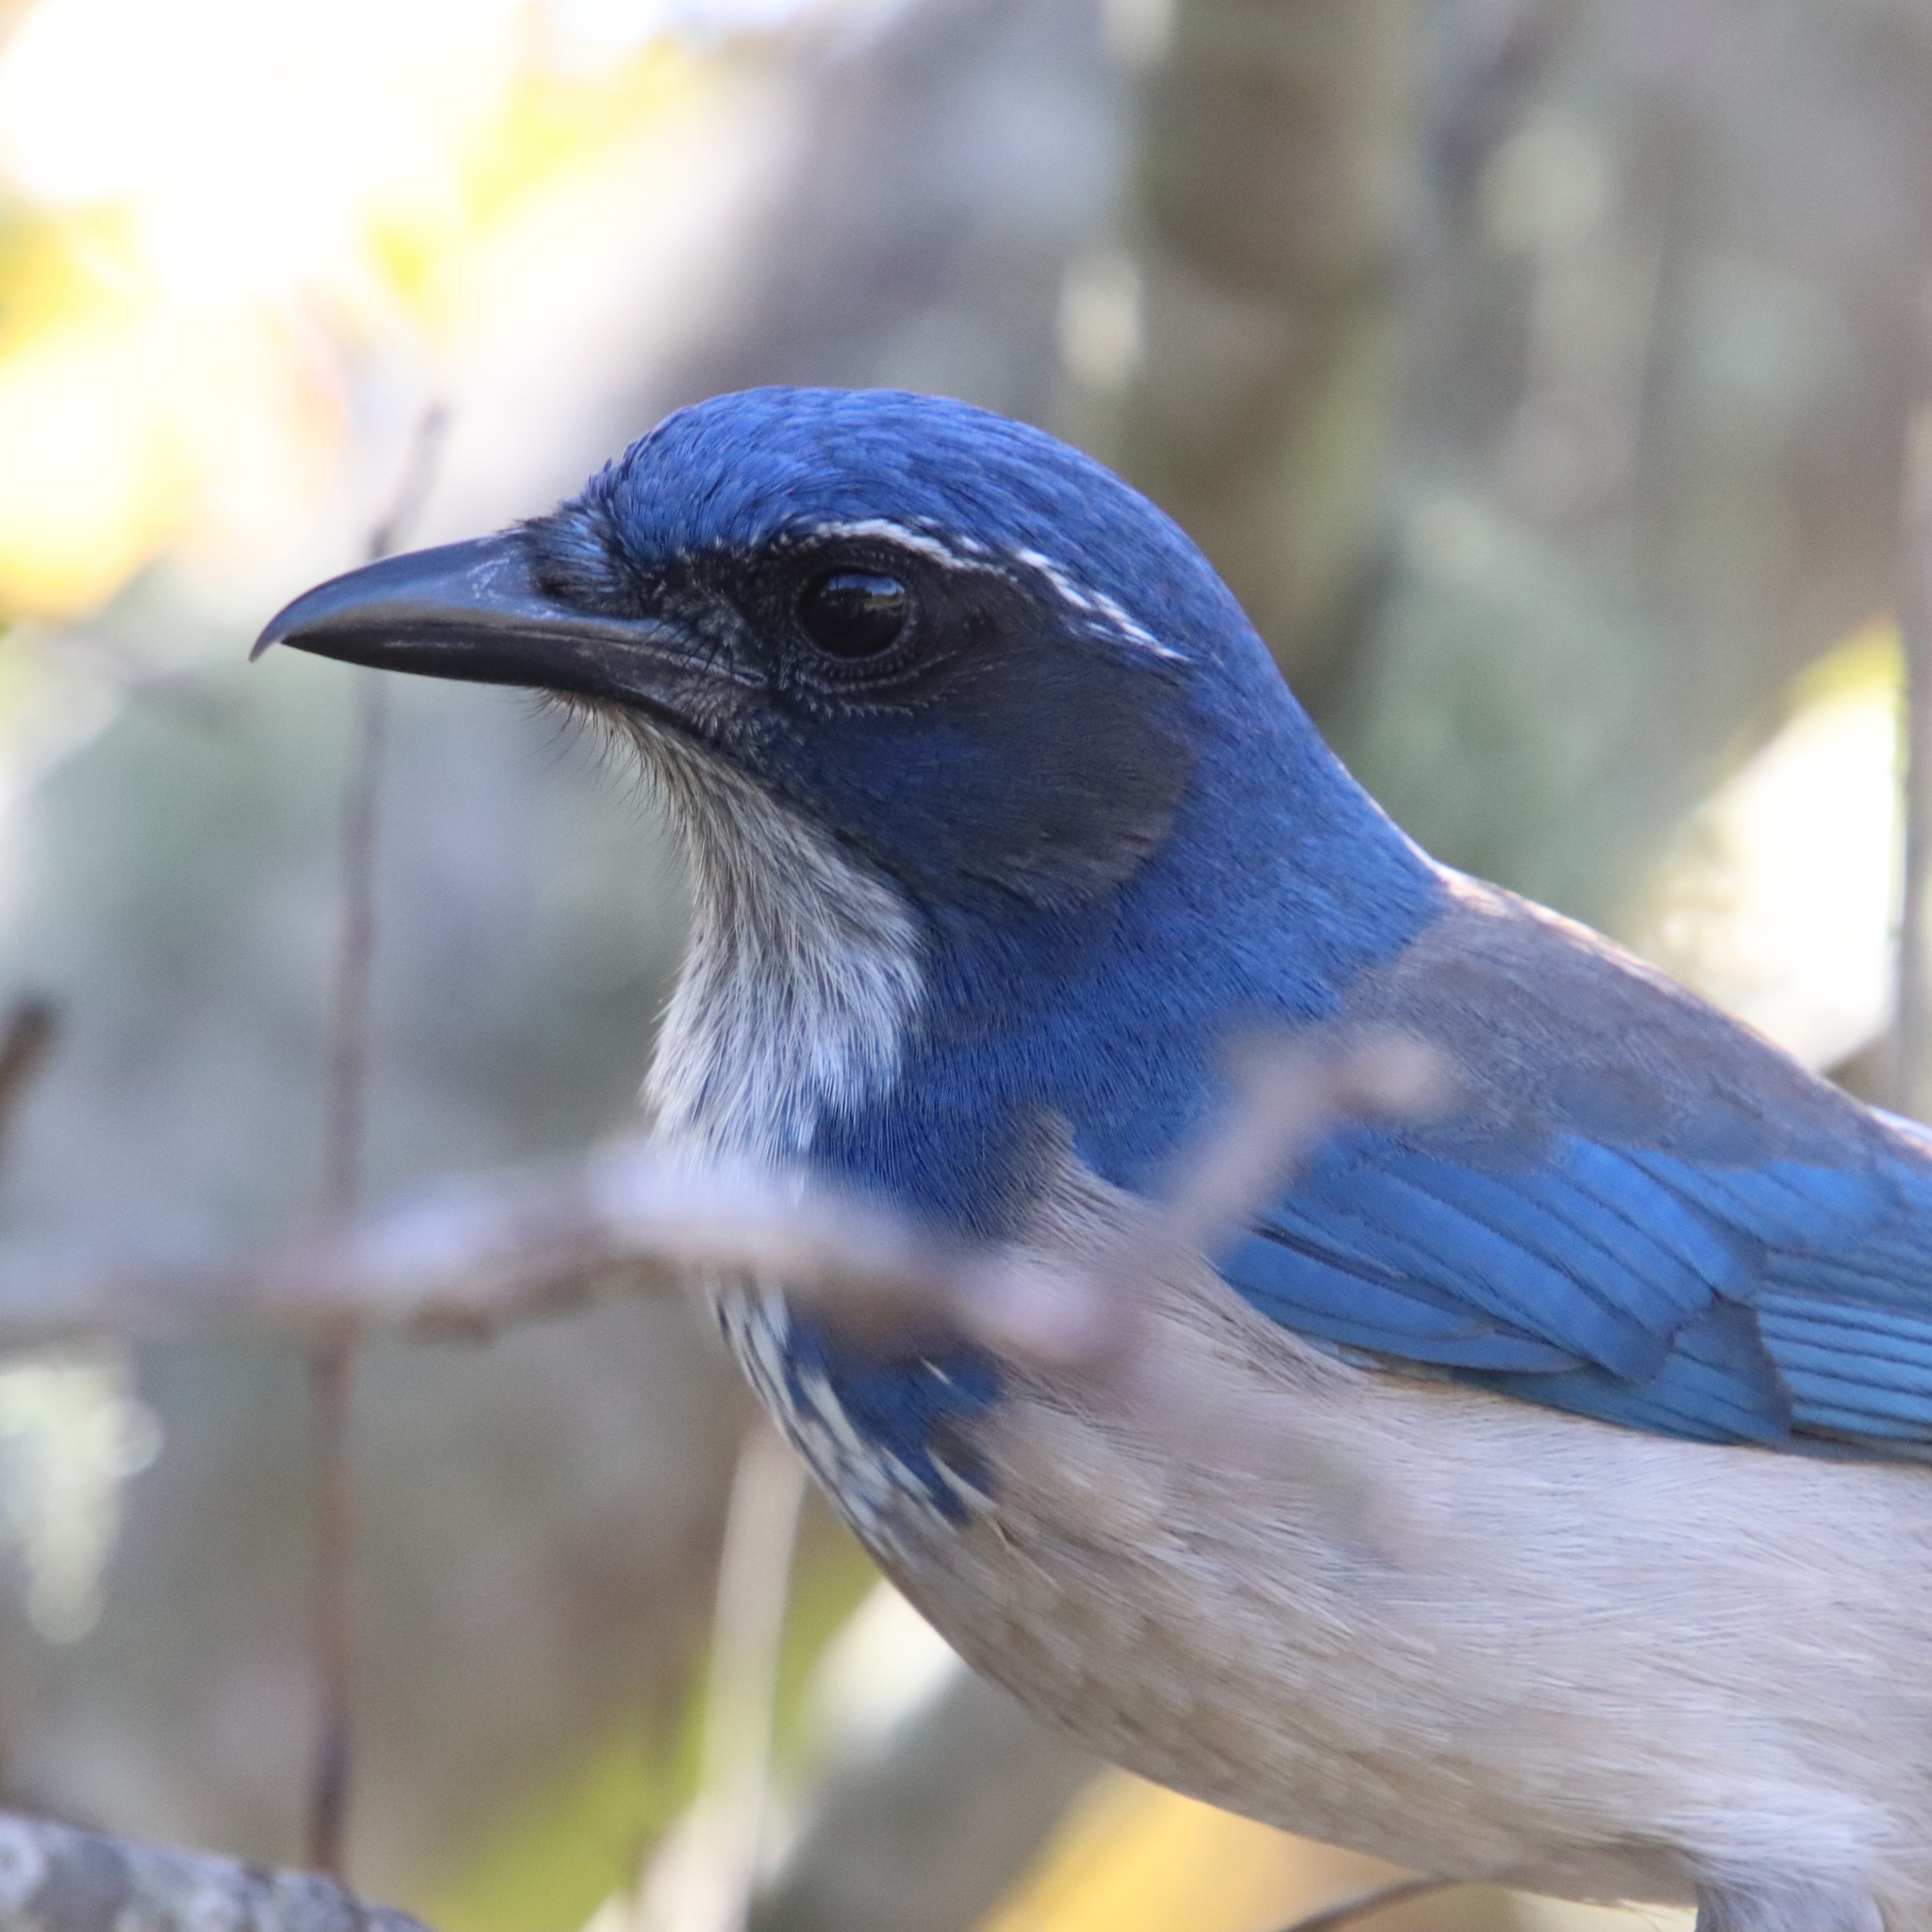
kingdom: Animalia
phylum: Chordata
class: Aves
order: Passeriformes
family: Corvidae
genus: Aphelocoma
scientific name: Aphelocoma californica
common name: California scrub-jay
